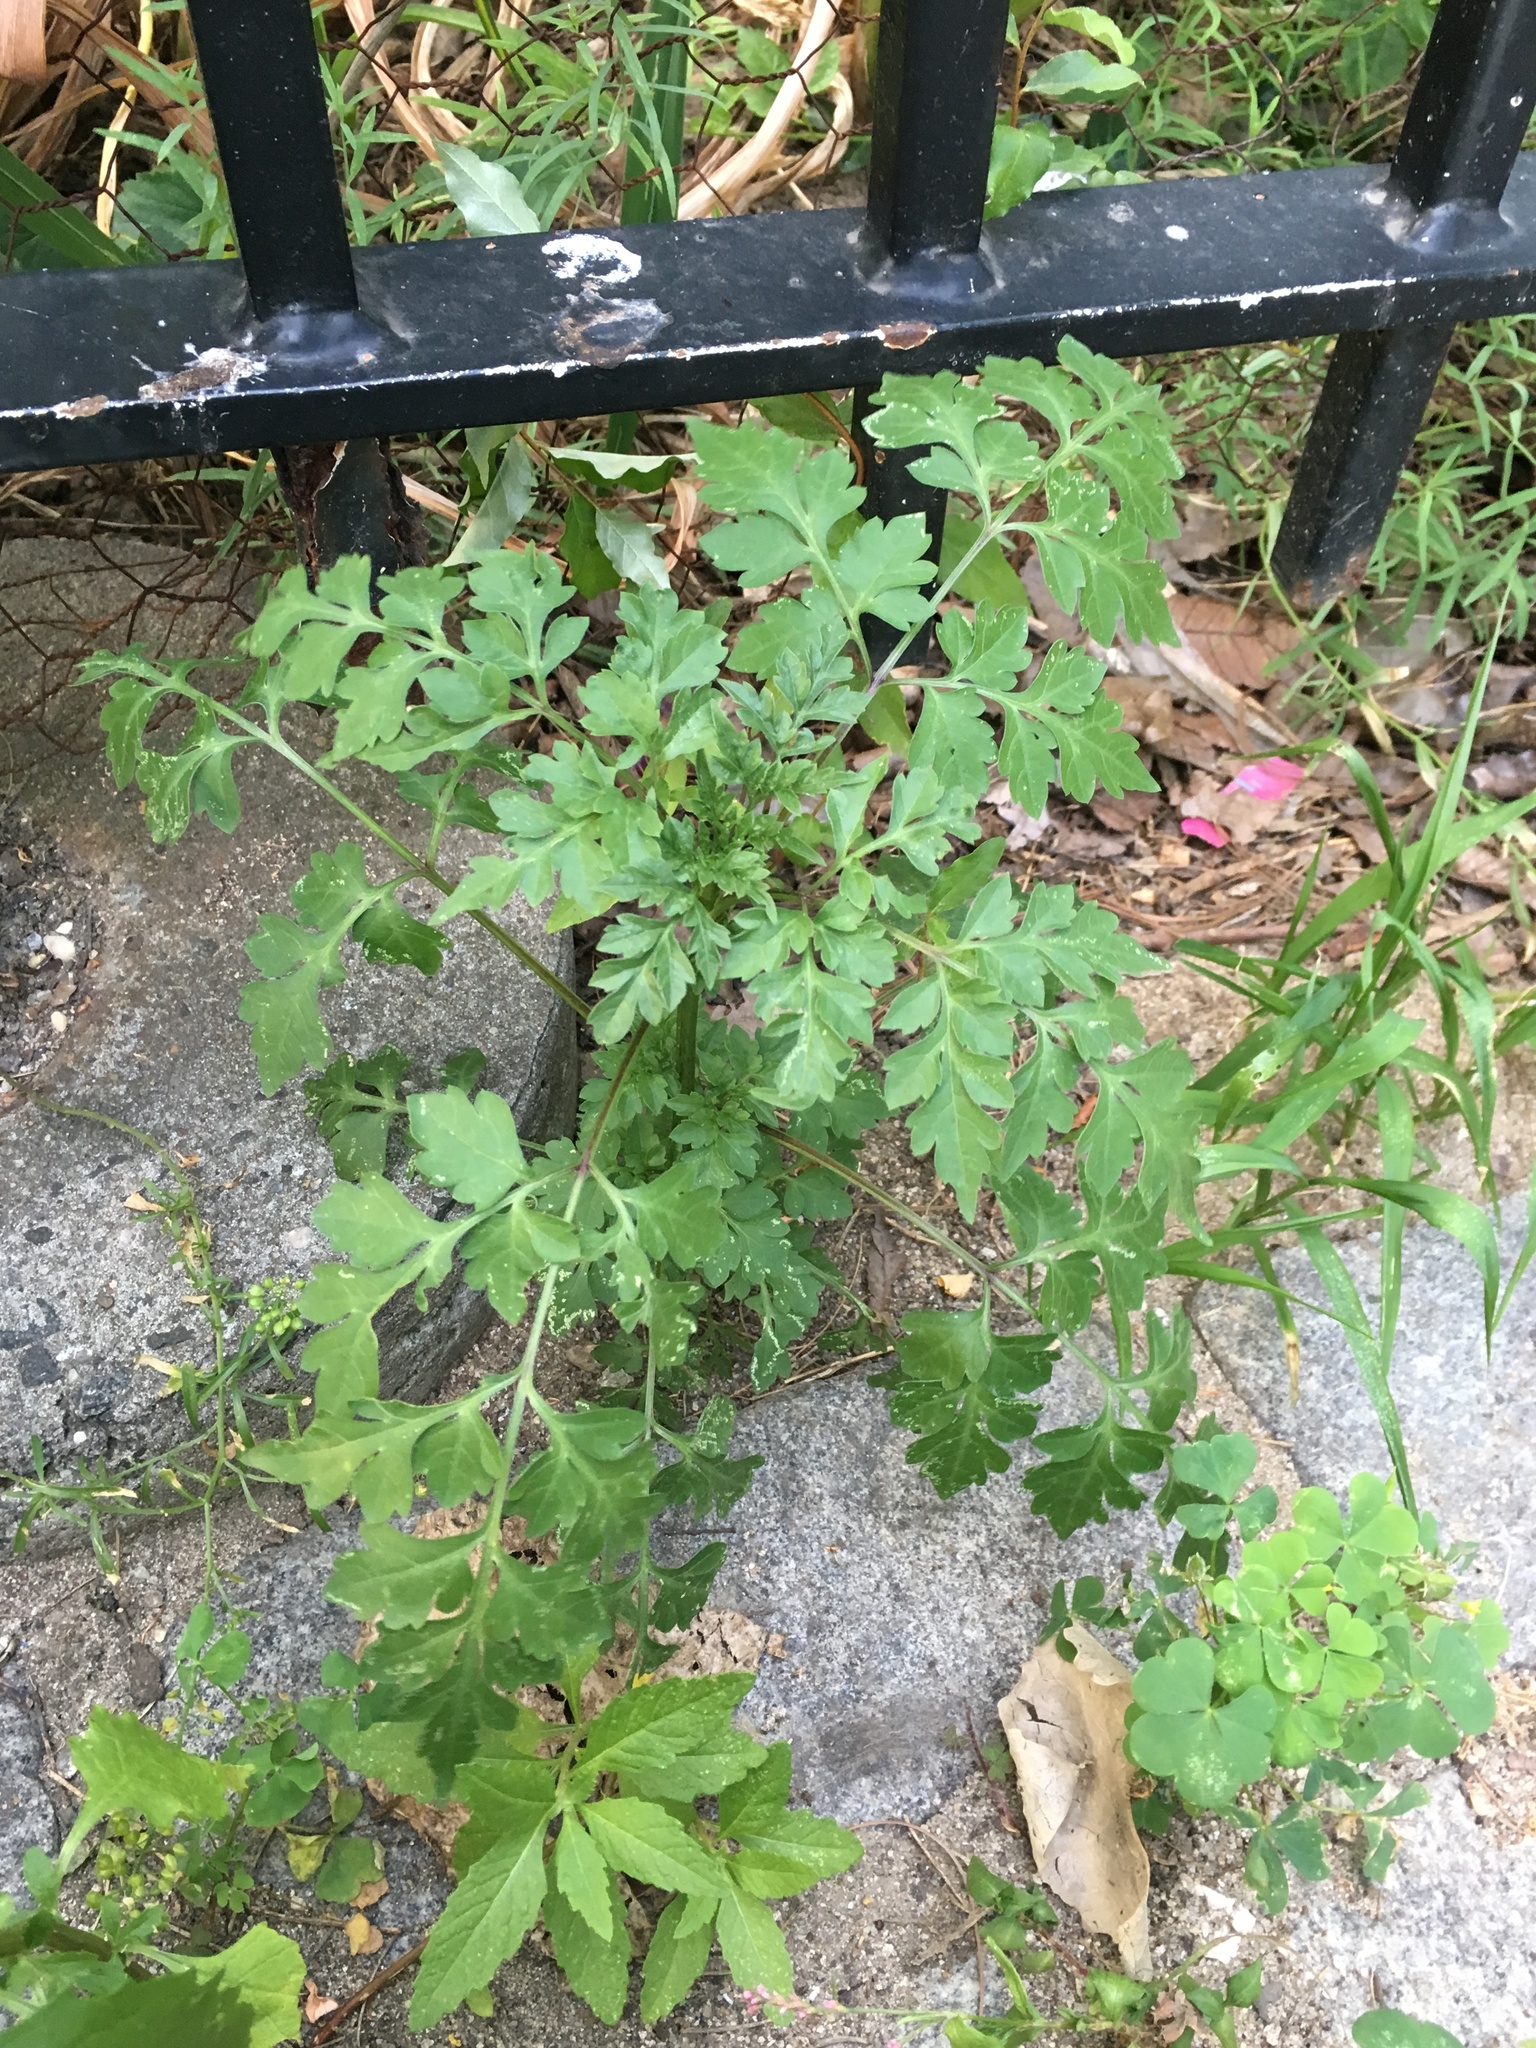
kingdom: Plantae
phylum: Tracheophyta
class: Magnoliopsida
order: Asterales
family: Asteraceae
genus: Bidens
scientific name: Bidens bipinnata
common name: Spanish-needles
